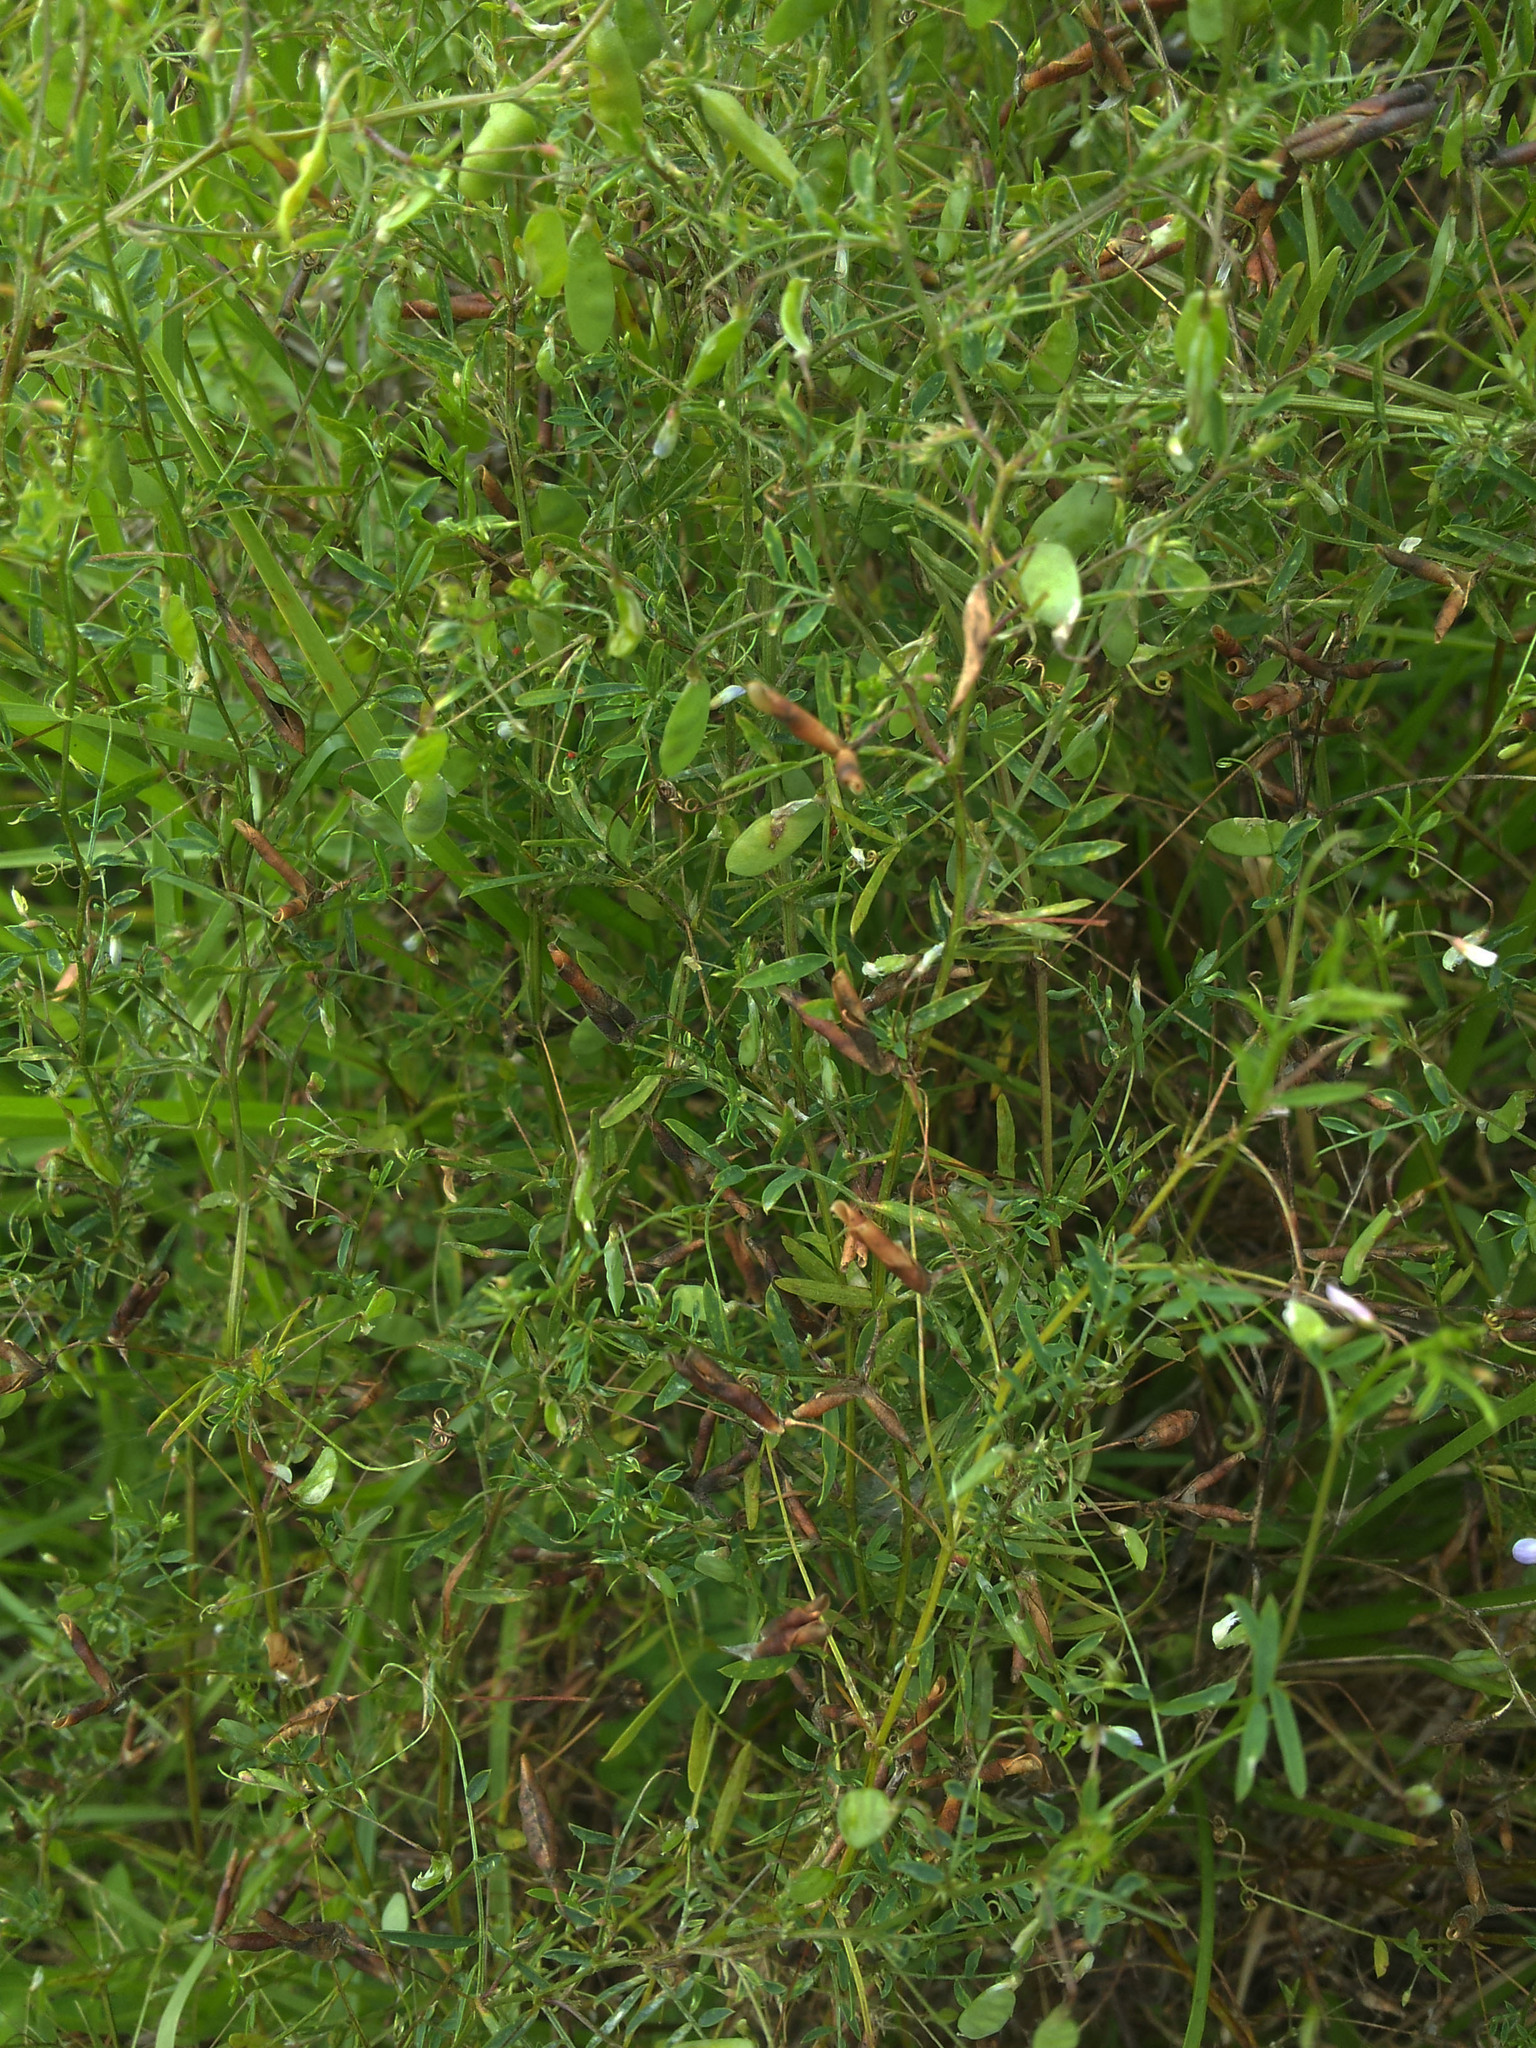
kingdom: Plantae
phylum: Tracheophyta
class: Magnoliopsida
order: Fabales
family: Fabaceae
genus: Vicia
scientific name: Vicia tetrasperma
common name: Smooth tare
